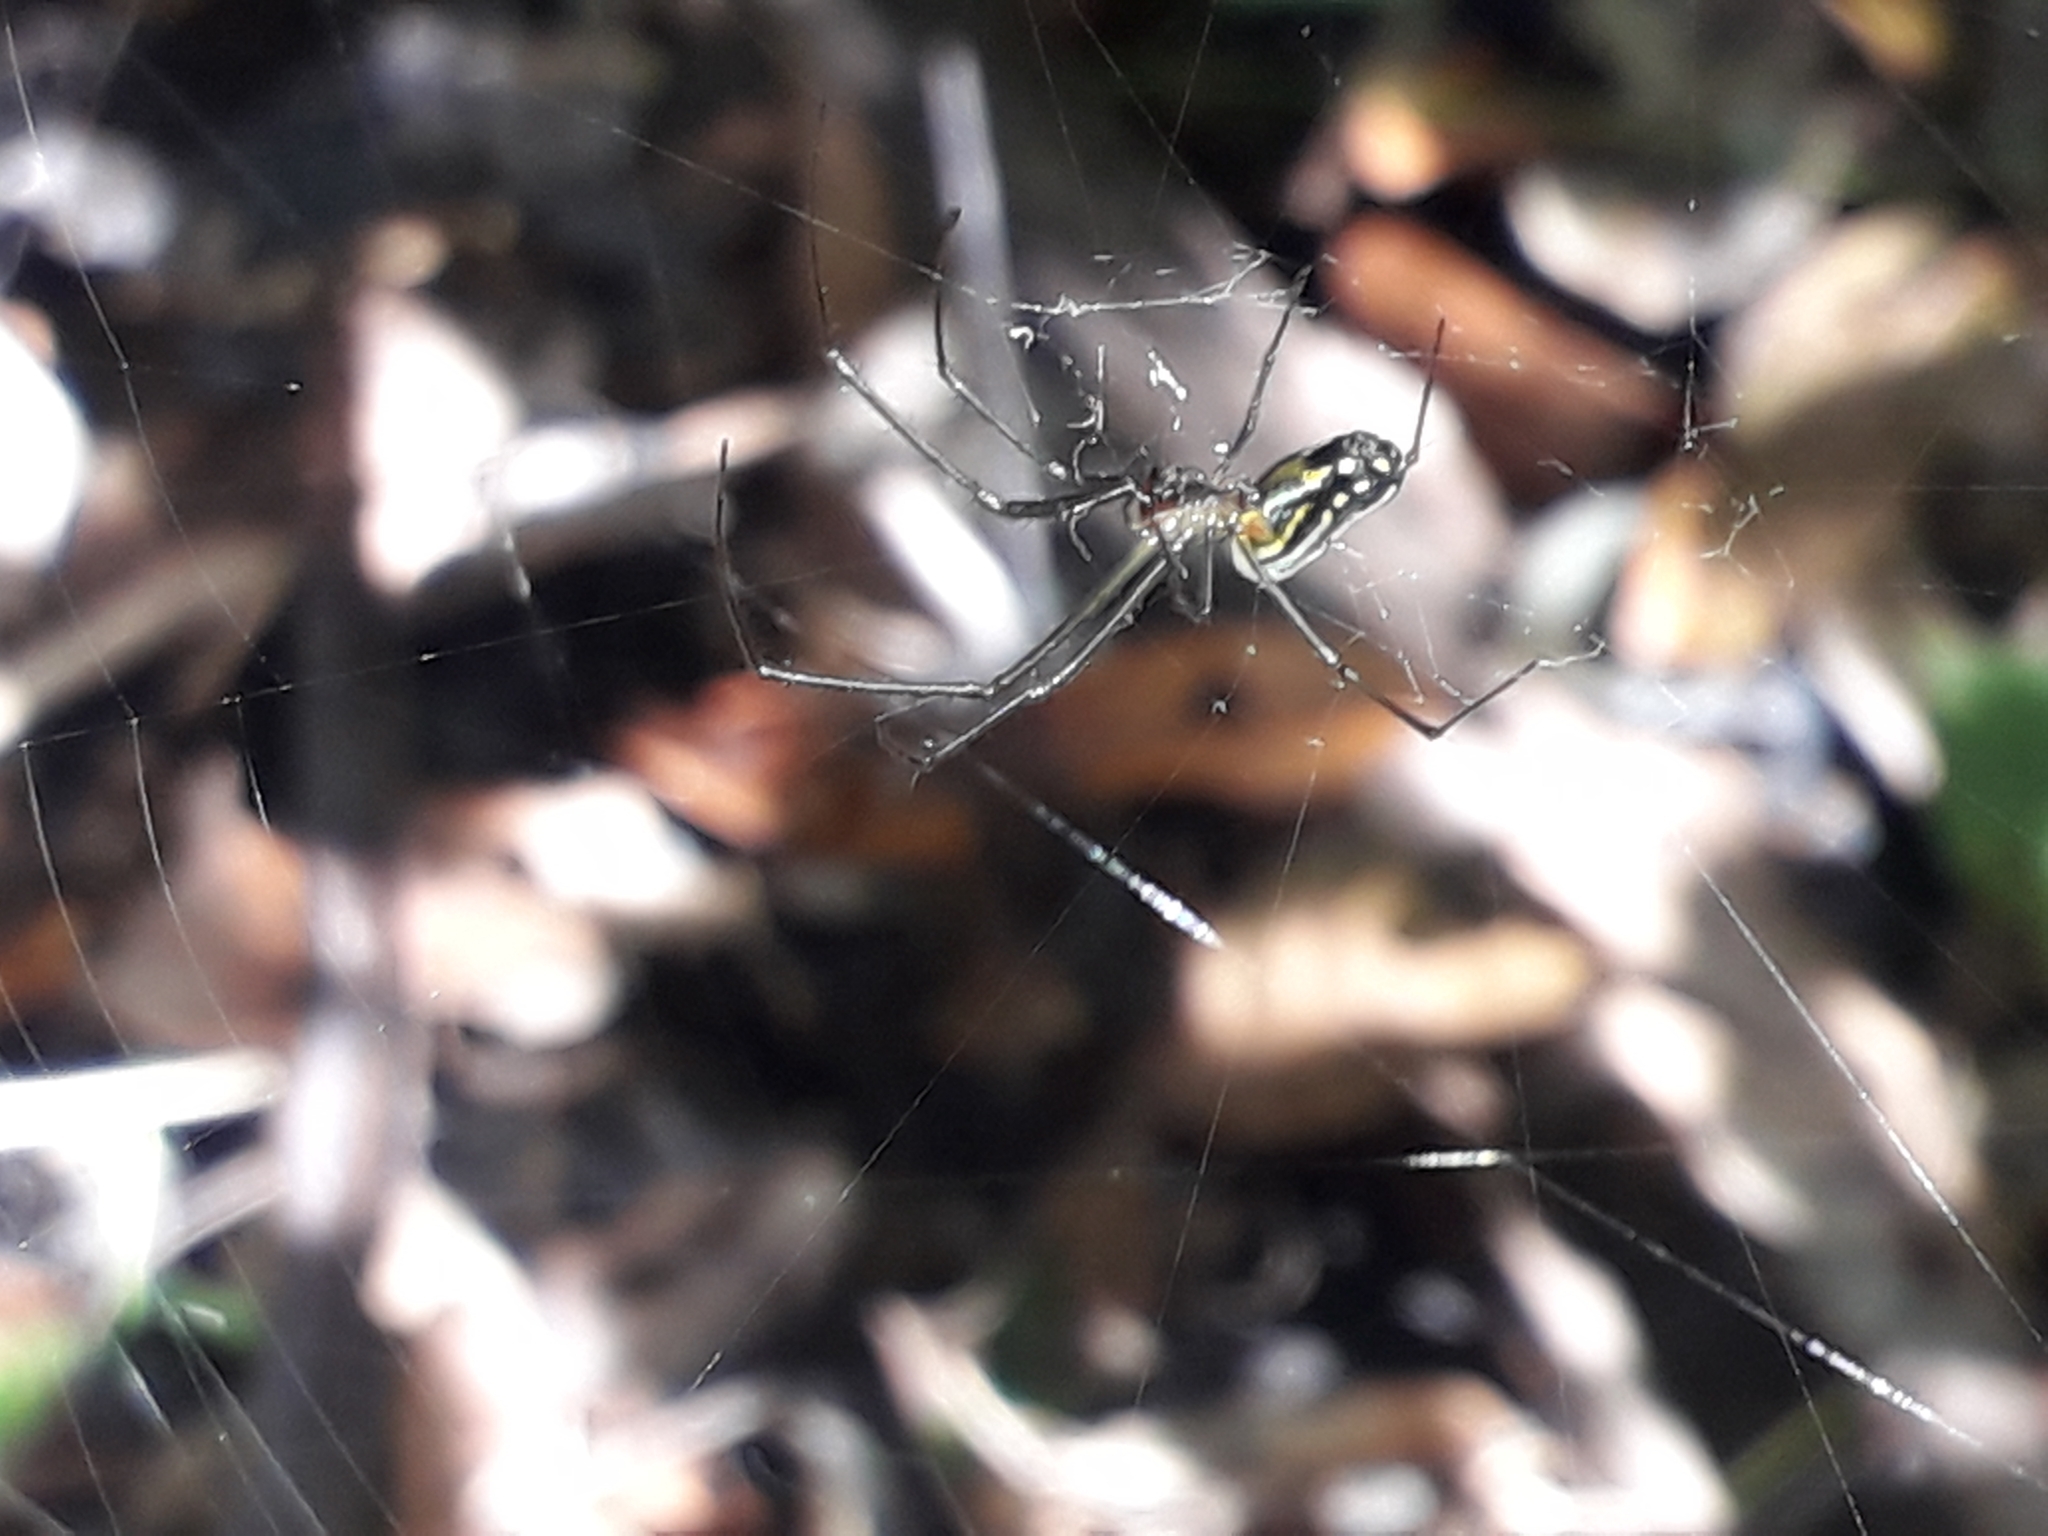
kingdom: Animalia
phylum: Arthropoda
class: Arachnida
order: Araneae
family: Tetragnathidae
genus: Leucauge
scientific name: Leucauge argyra
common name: Longjawed orb weavers
